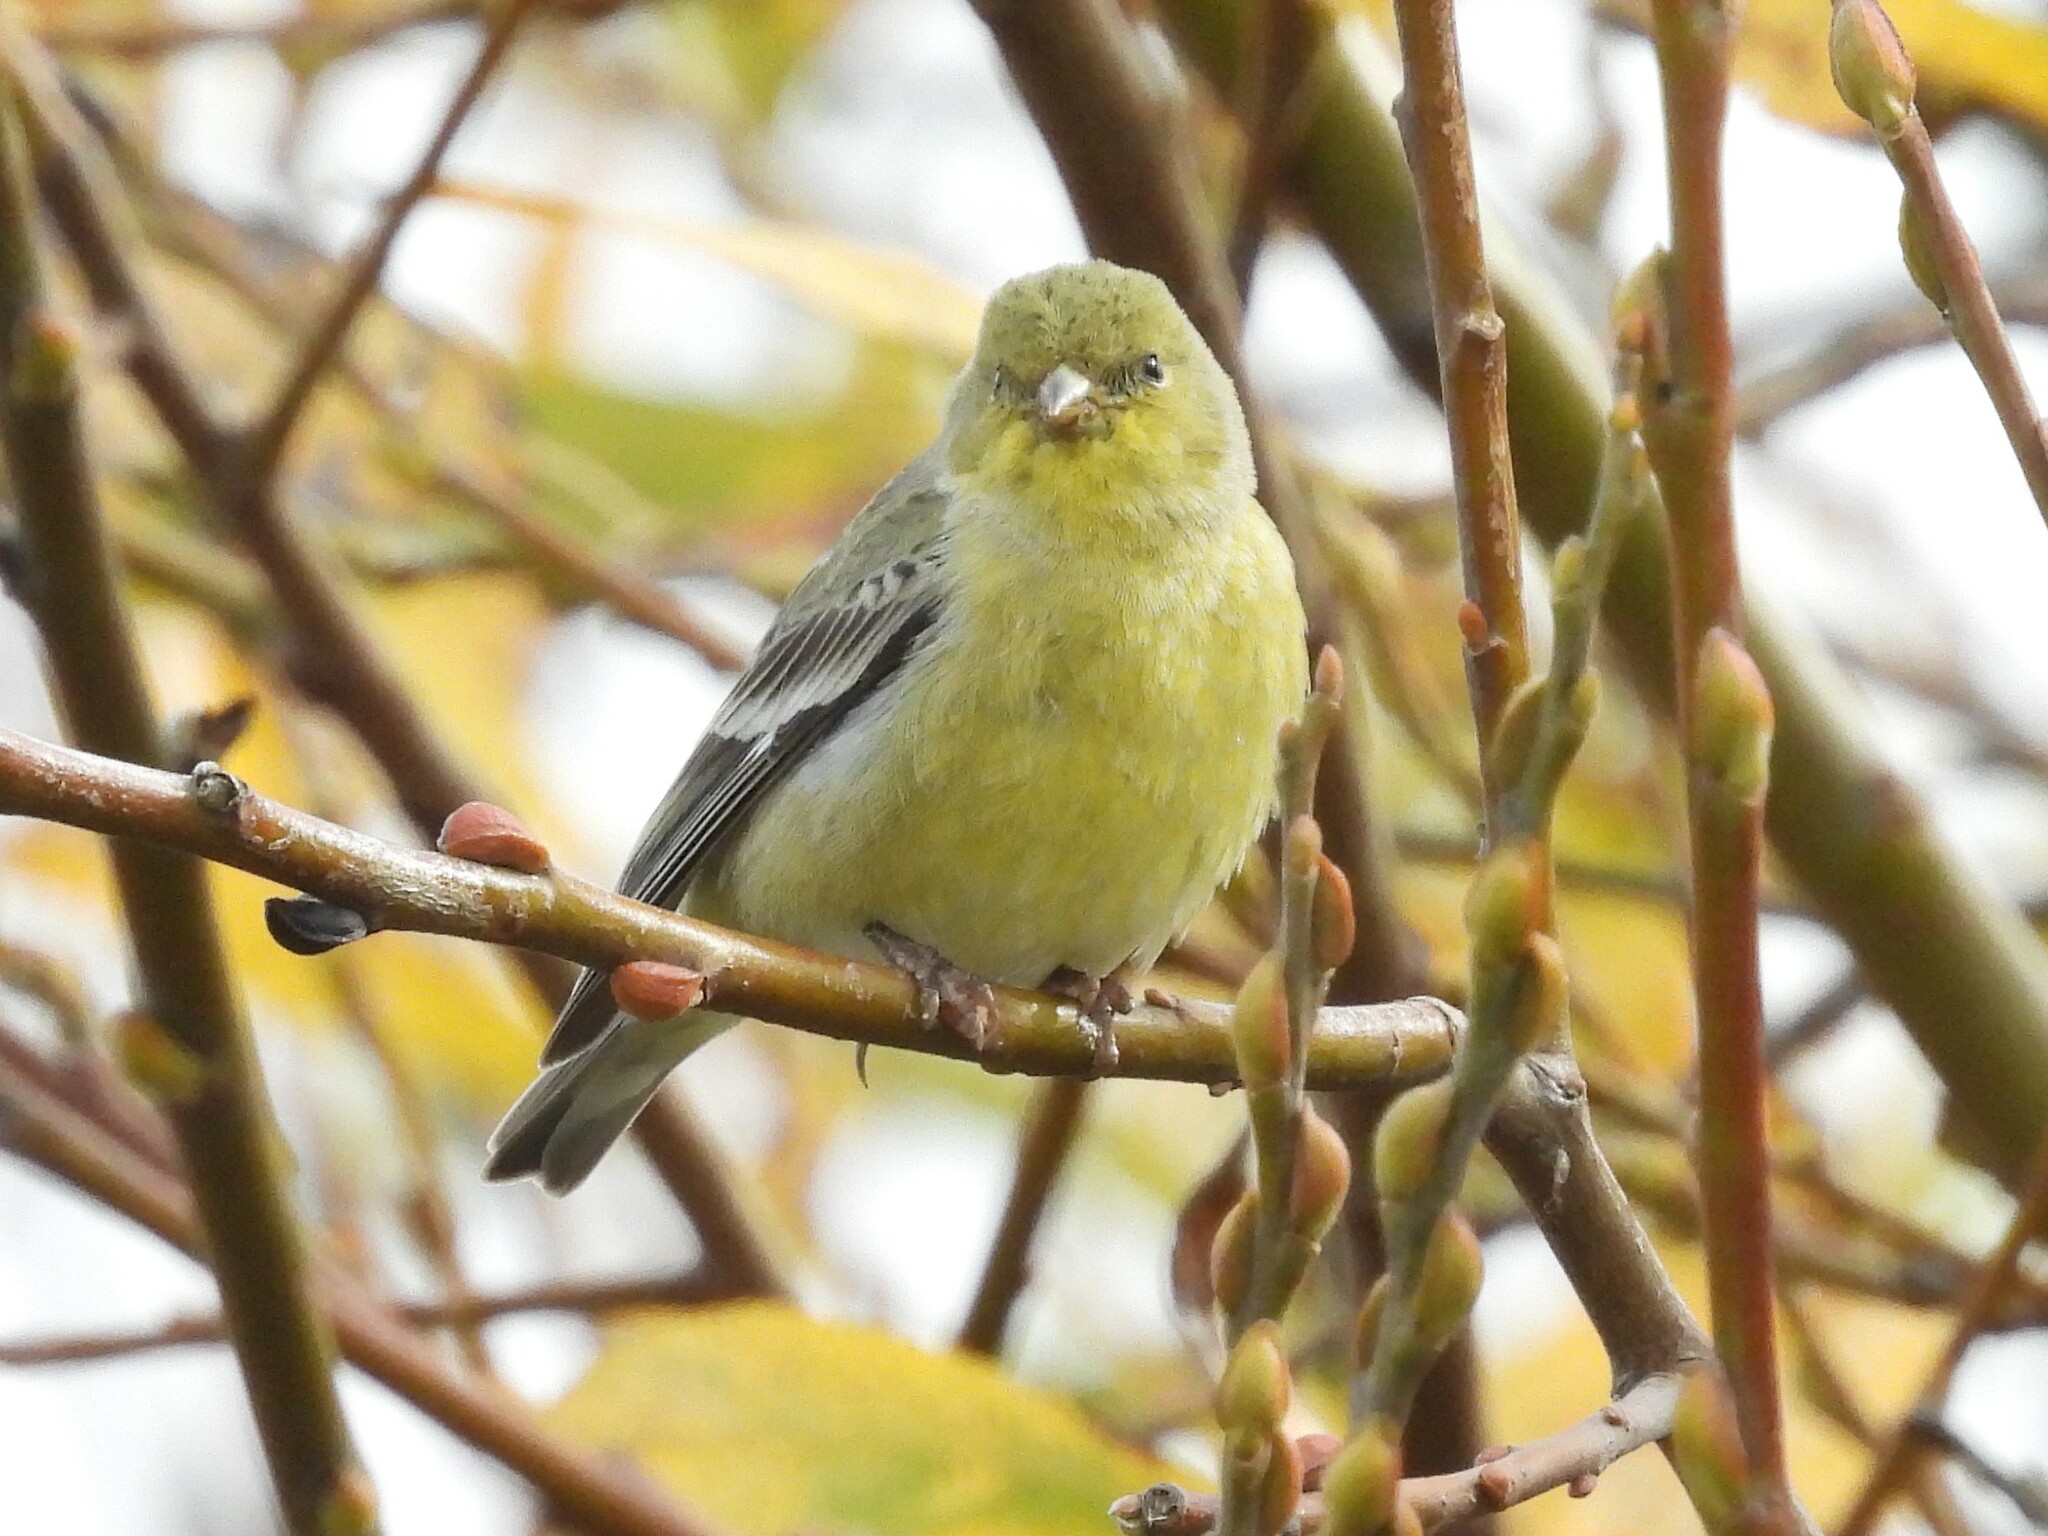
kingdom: Animalia
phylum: Chordata
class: Aves
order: Passeriformes
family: Fringillidae
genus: Spinus
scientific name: Spinus psaltria
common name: Lesser goldfinch
